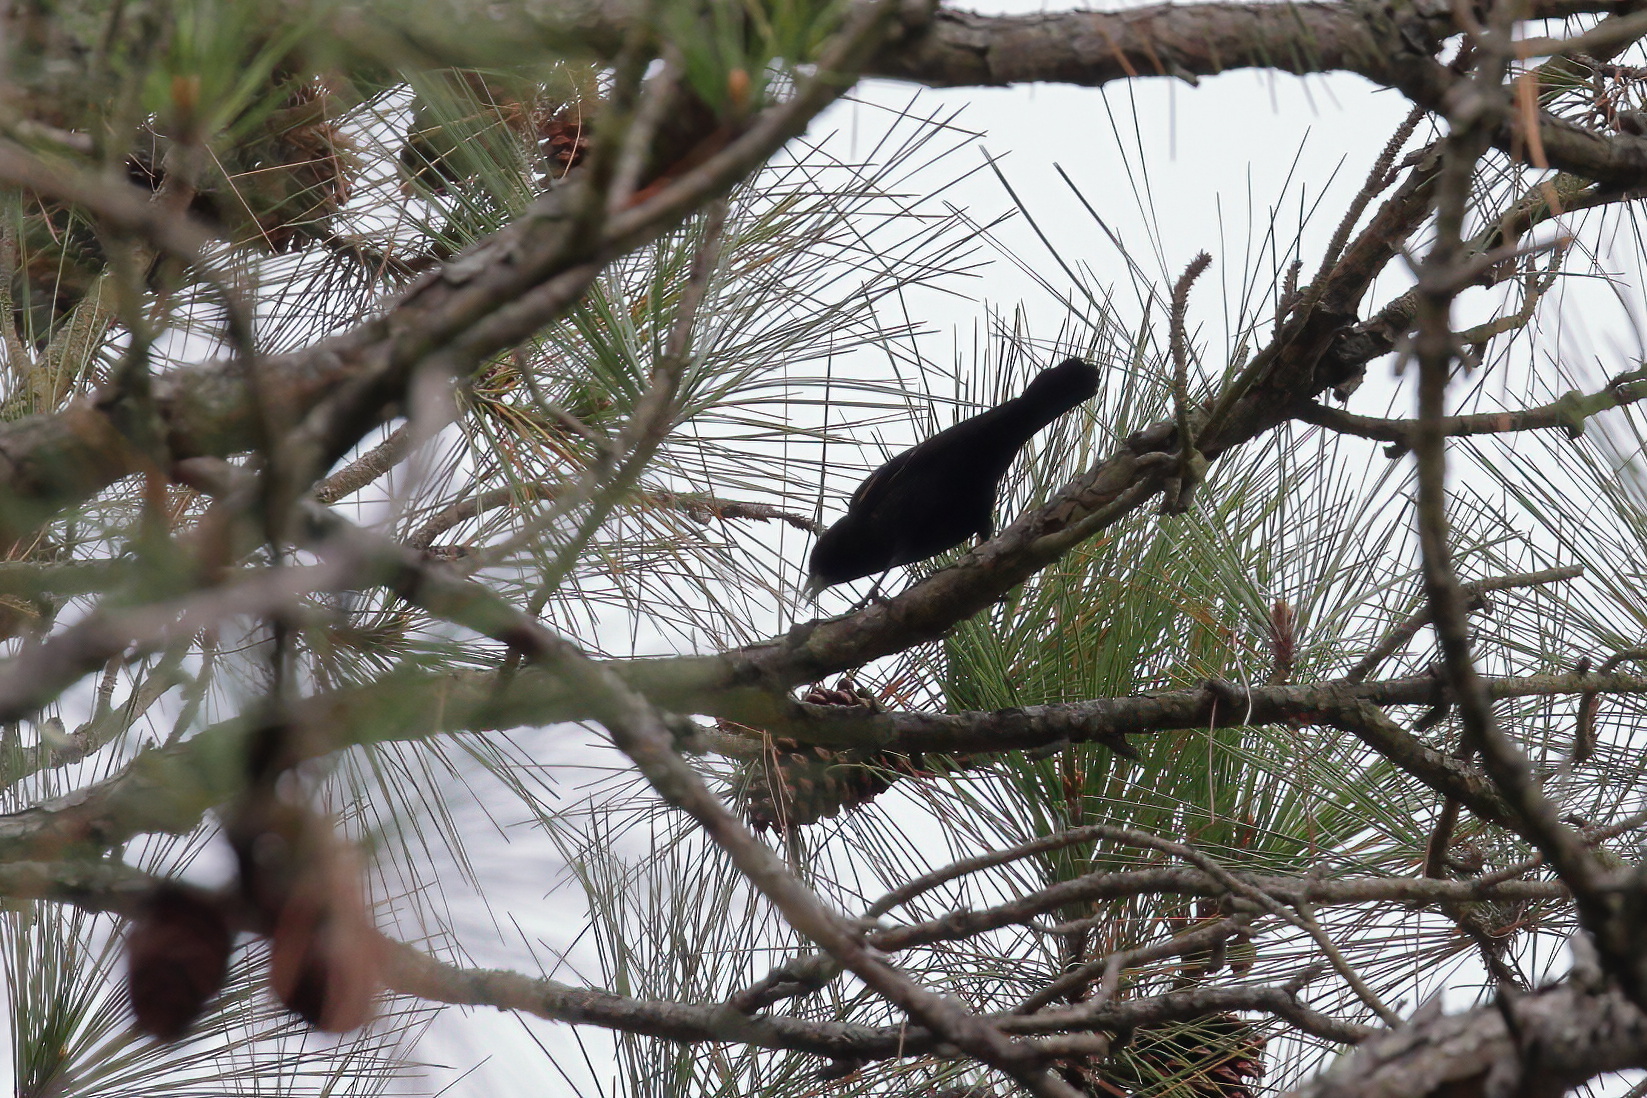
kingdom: Animalia
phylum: Chordata
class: Aves
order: Passeriformes
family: Icteridae
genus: Agelaius
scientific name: Agelaius phoeniceus
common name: Red-winged blackbird
